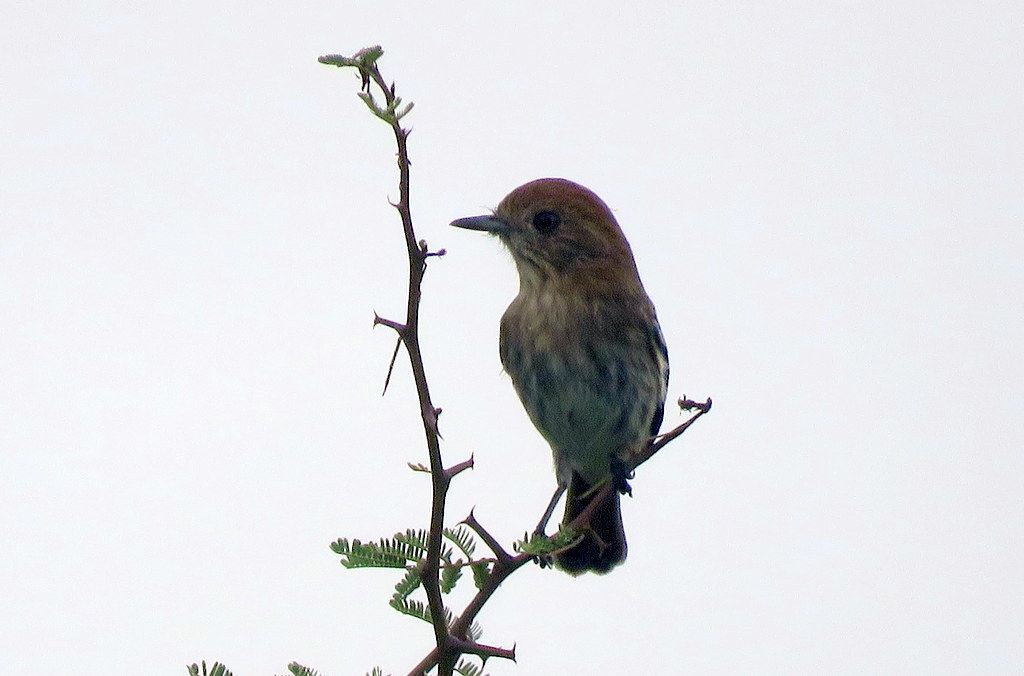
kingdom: Animalia
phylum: Chordata
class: Aves
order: Passeriformes
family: Tyrannidae
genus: Knipolegus
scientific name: Knipolegus striaticeps
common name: Cinereous tyrant
